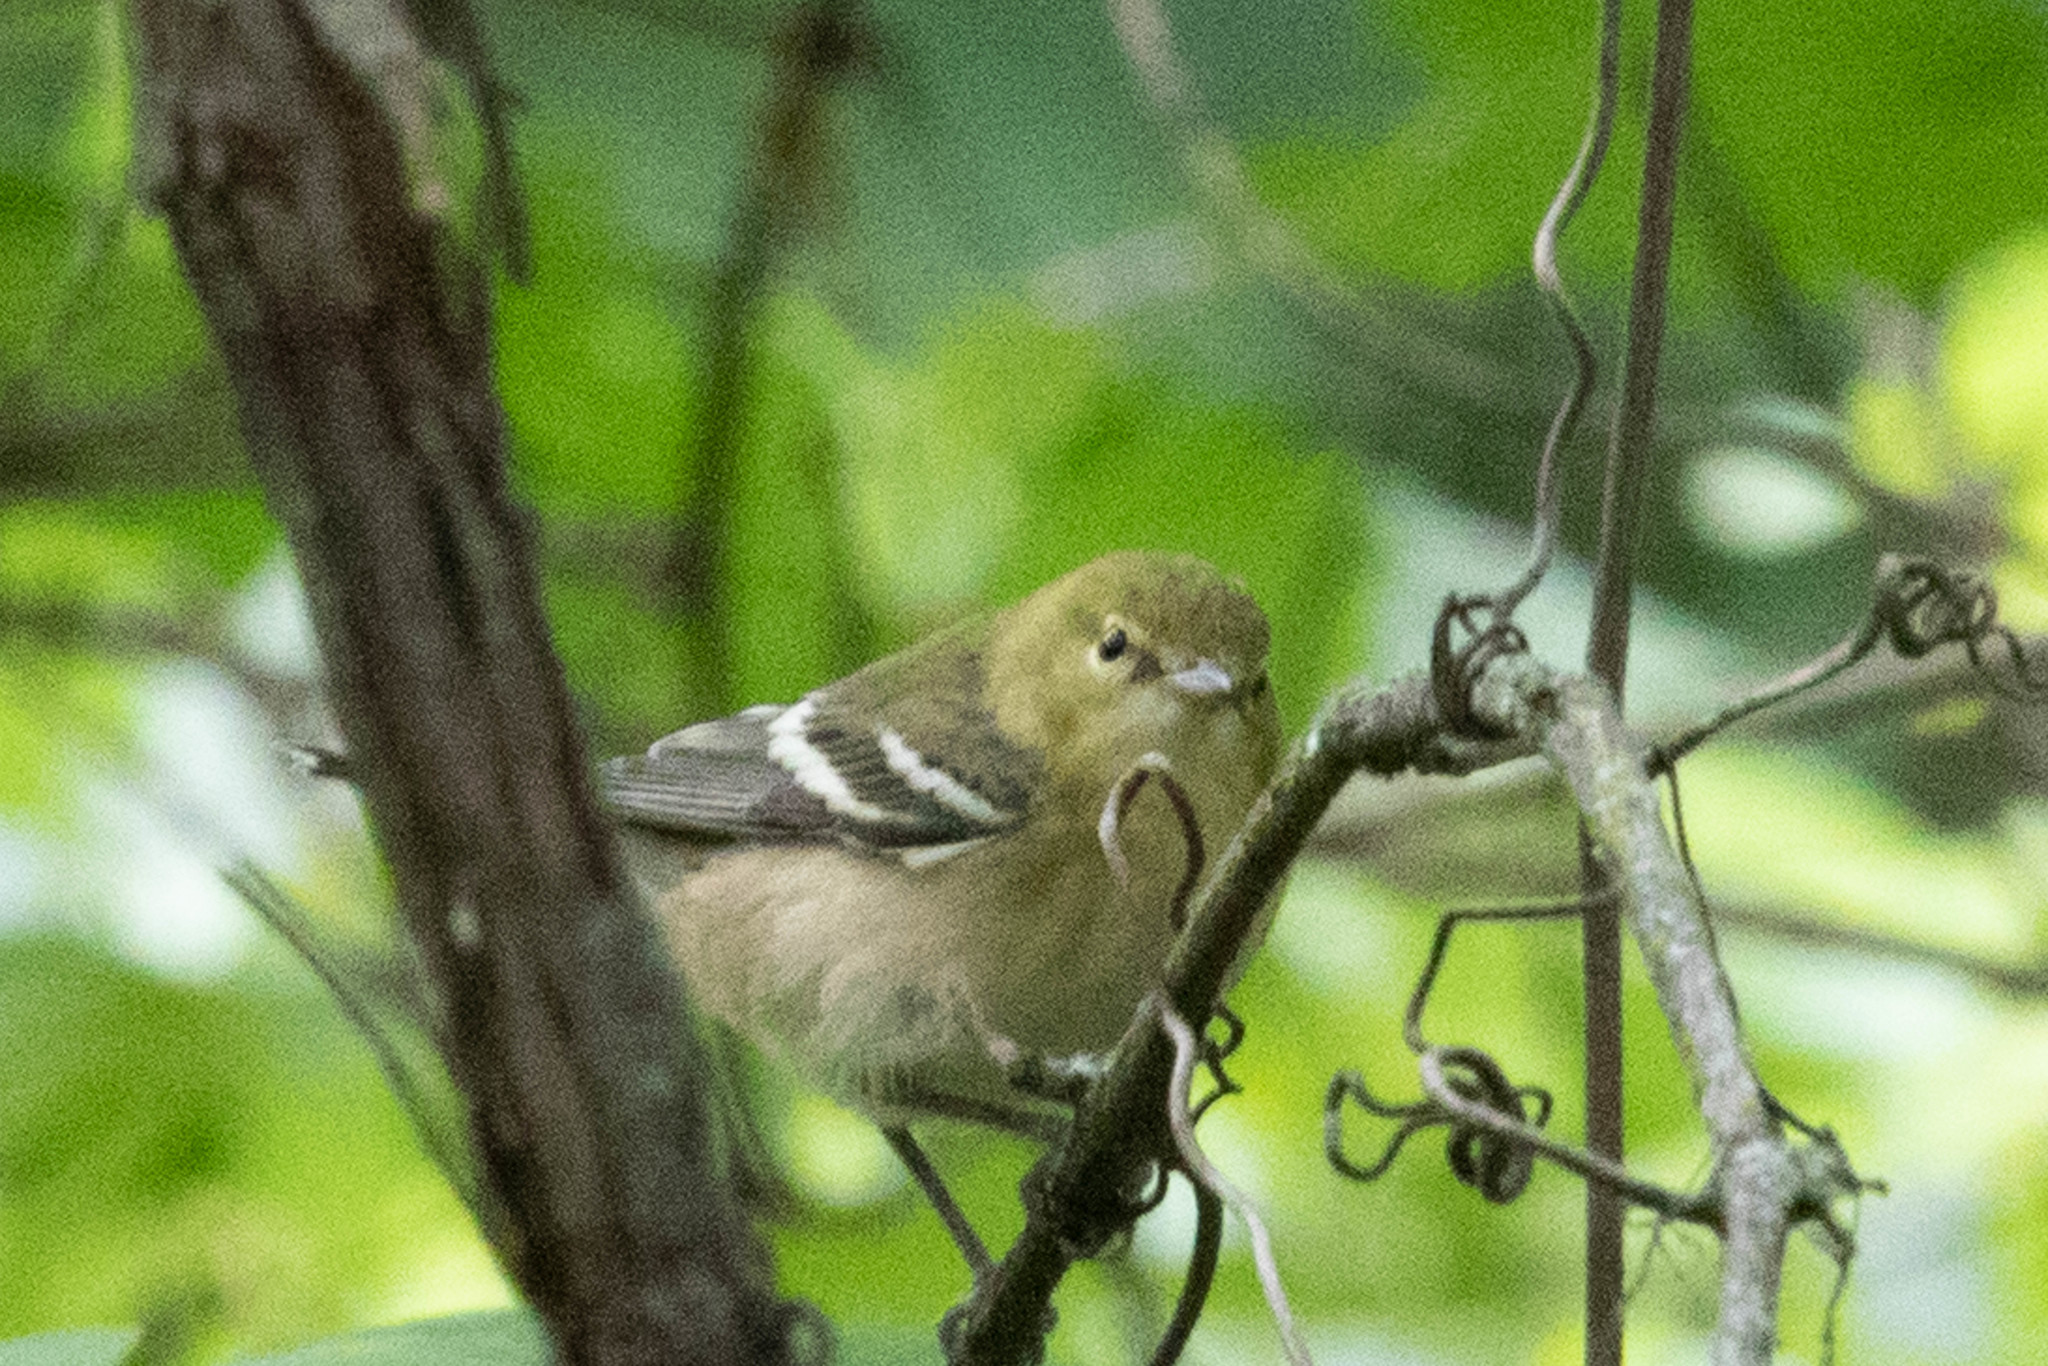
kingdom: Animalia
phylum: Chordata
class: Aves
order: Passeriformes
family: Parulidae
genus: Setophaga
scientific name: Setophaga castanea
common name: Bay-breasted warbler
